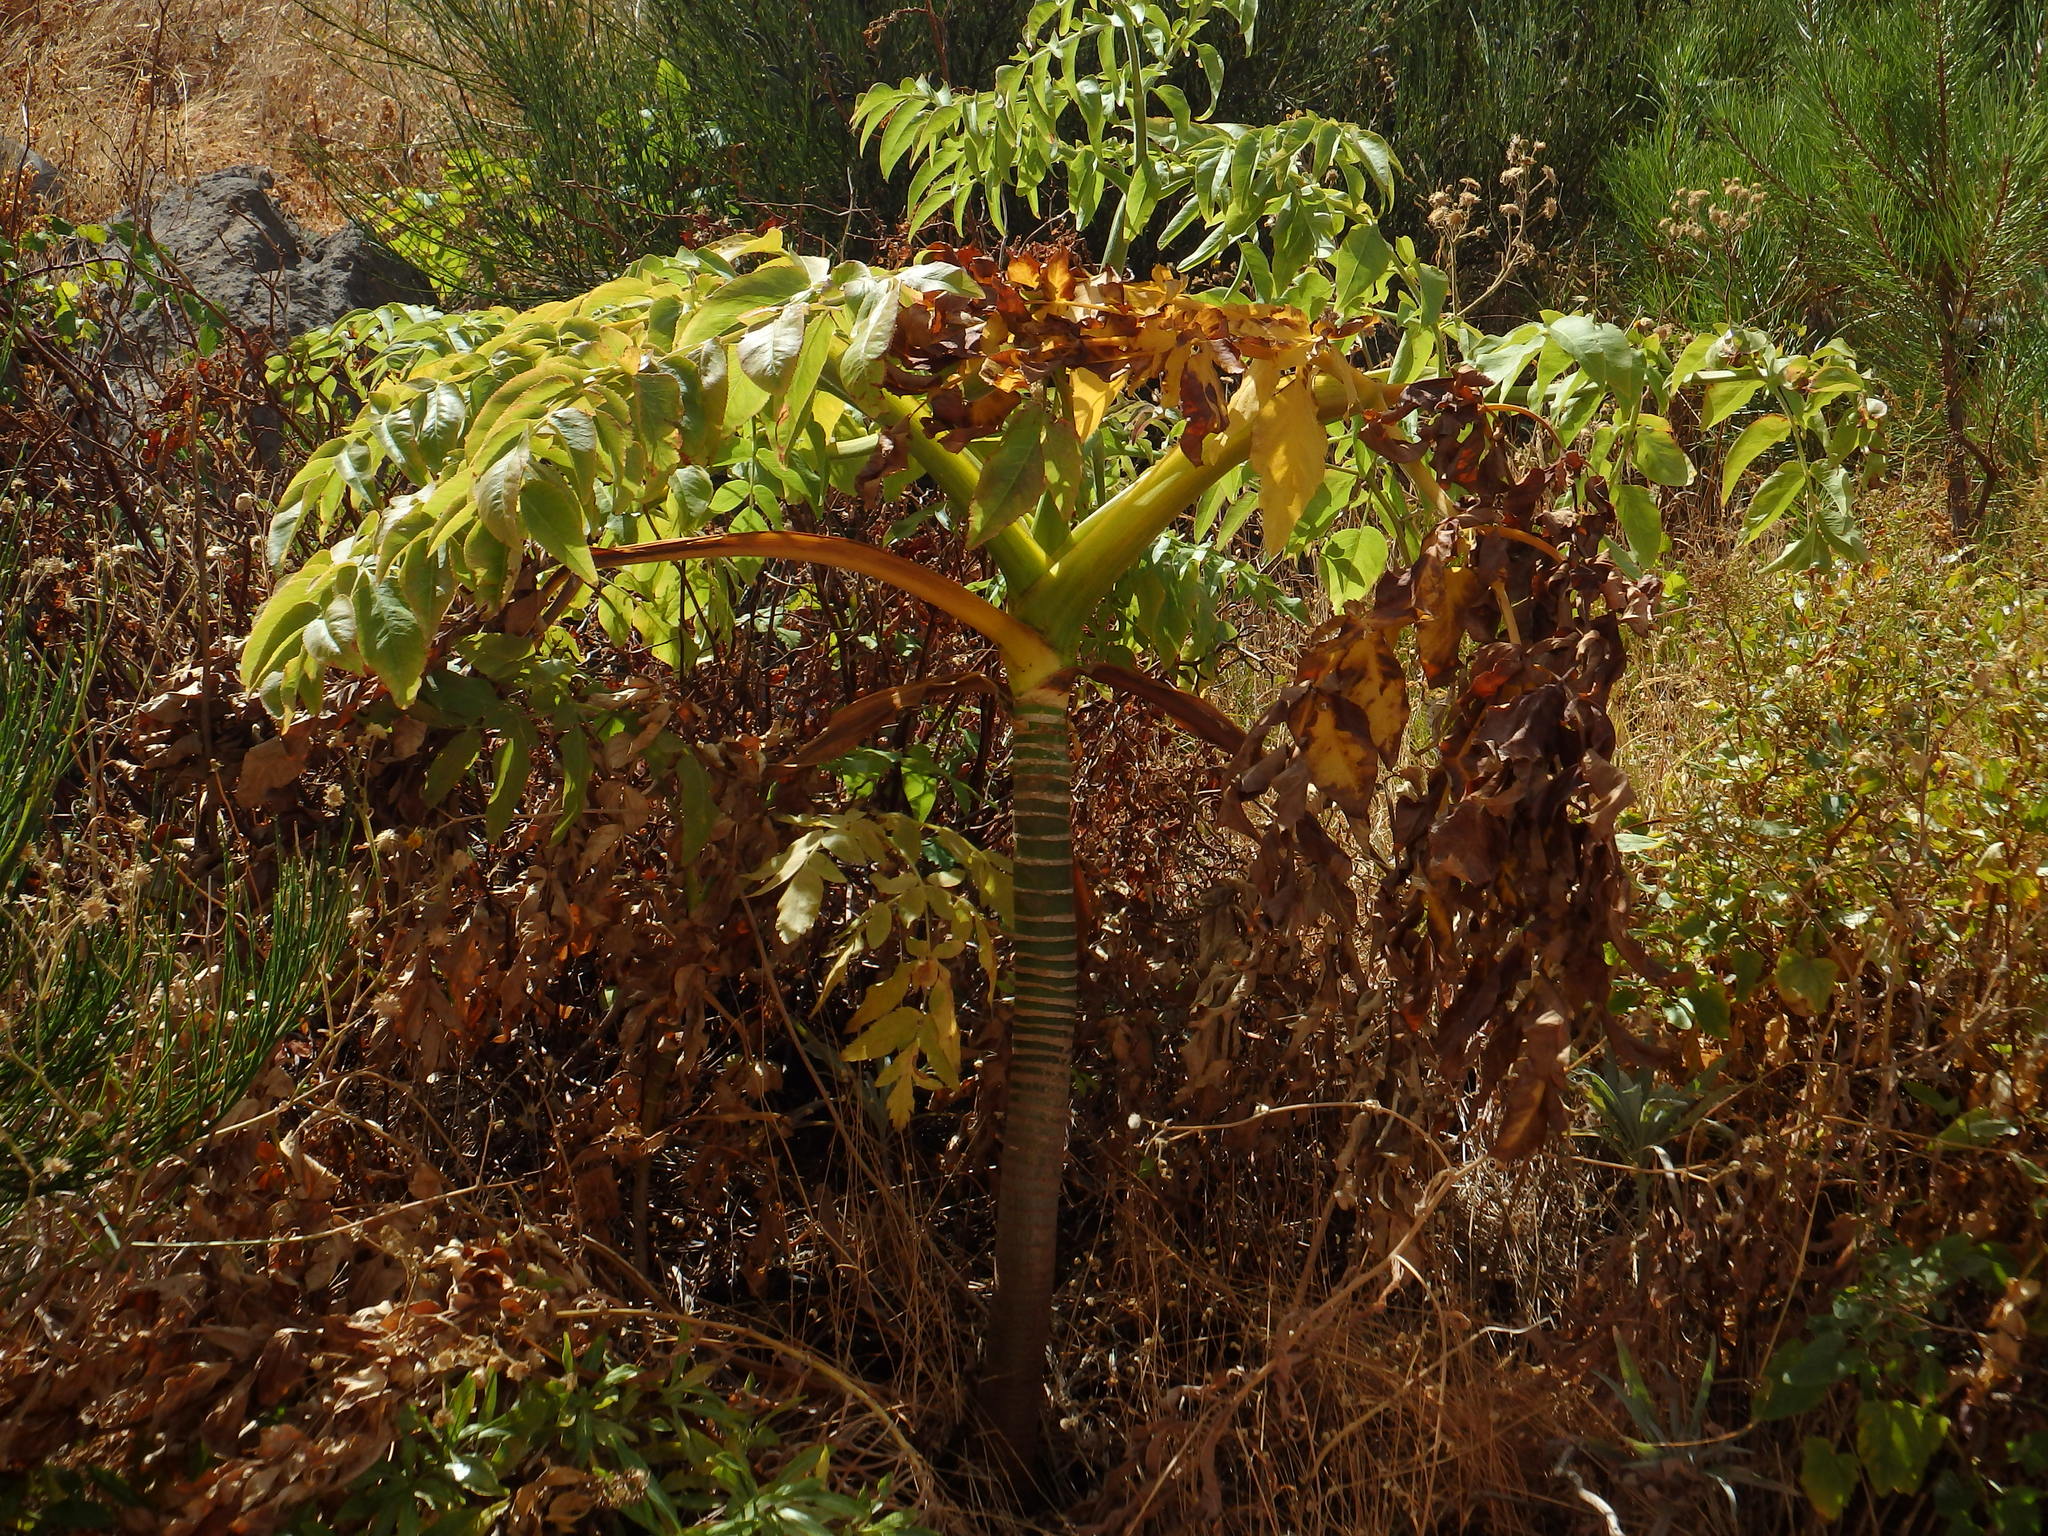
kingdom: Plantae
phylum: Tracheophyta
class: Magnoliopsida
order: Apiales
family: Apiaceae
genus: Daucus
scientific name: Daucus decipiens
